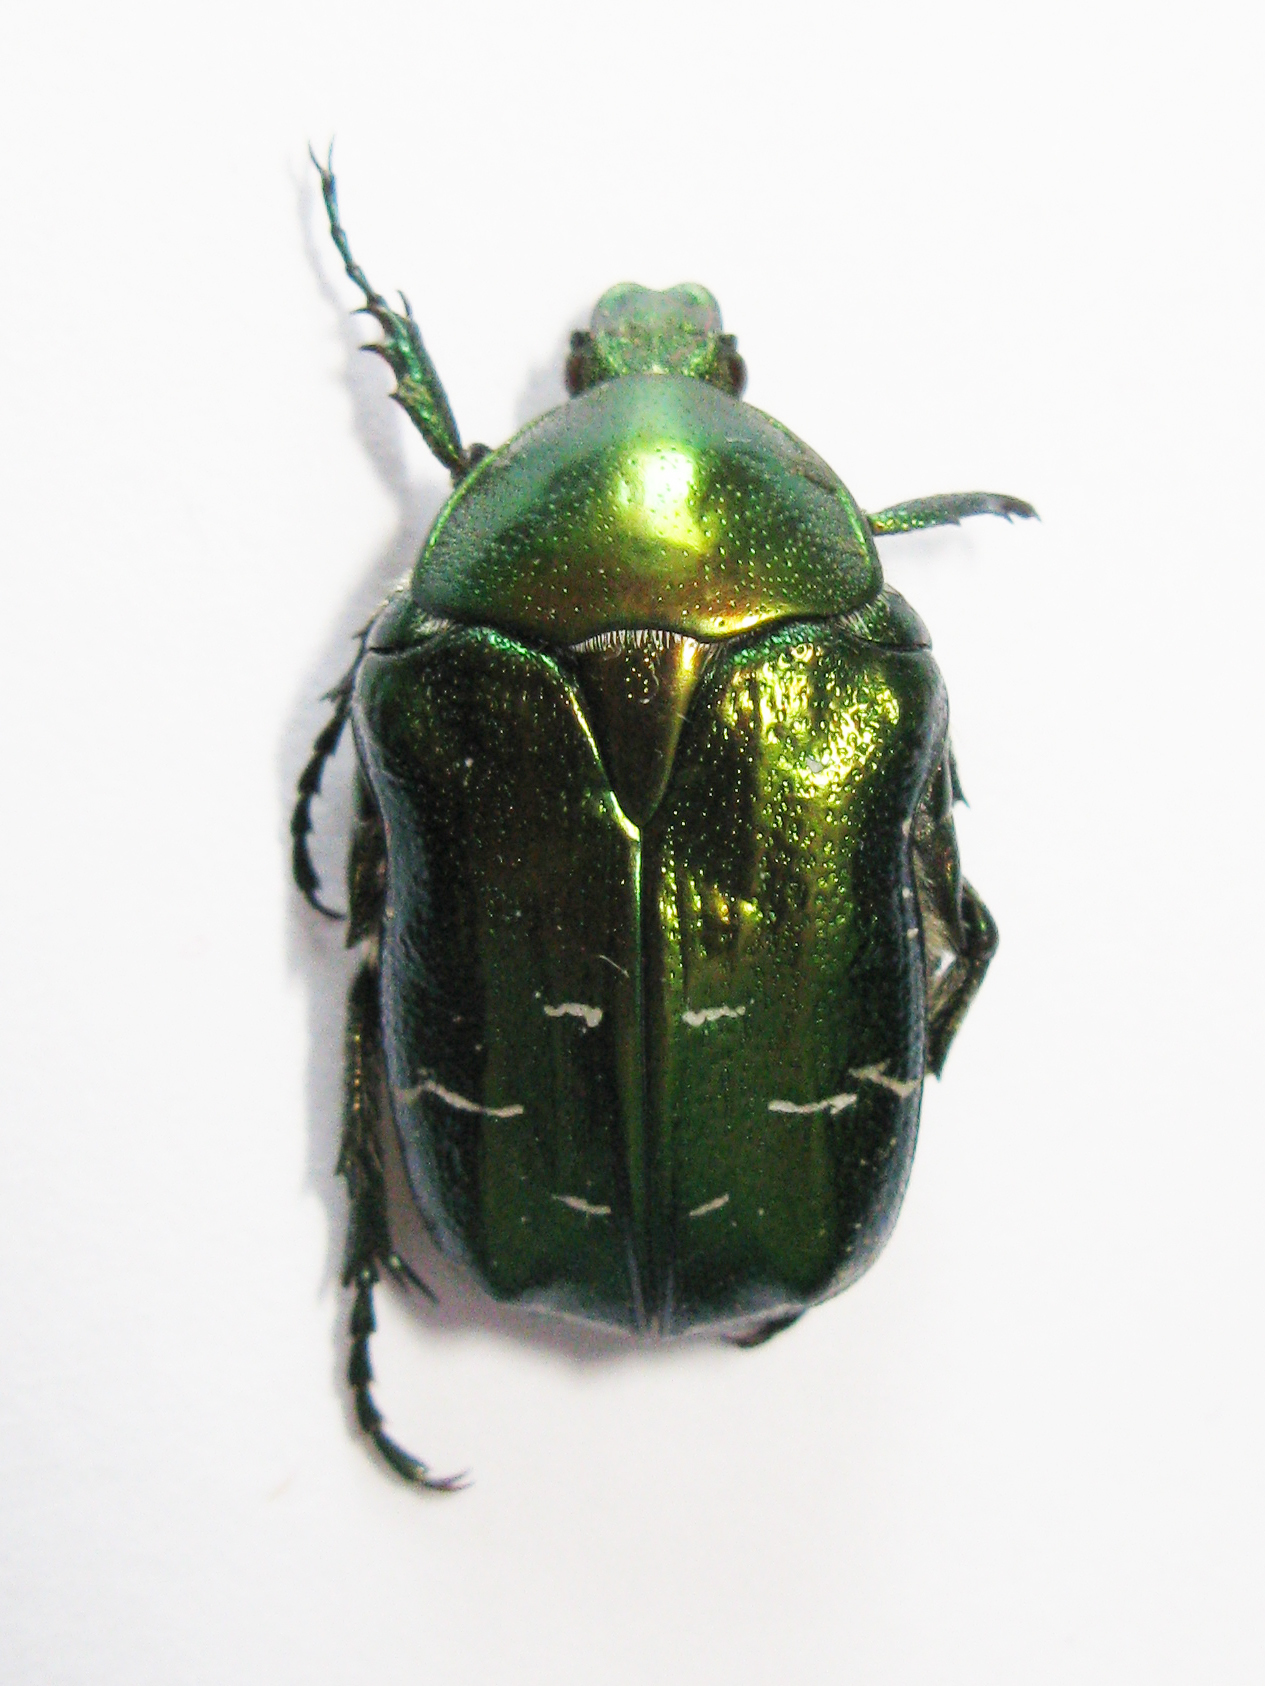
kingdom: Animalia
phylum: Arthropoda
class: Insecta
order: Coleoptera
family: Scarabaeidae
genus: Cetonia
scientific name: Cetonia aurata
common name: Rose chafer
